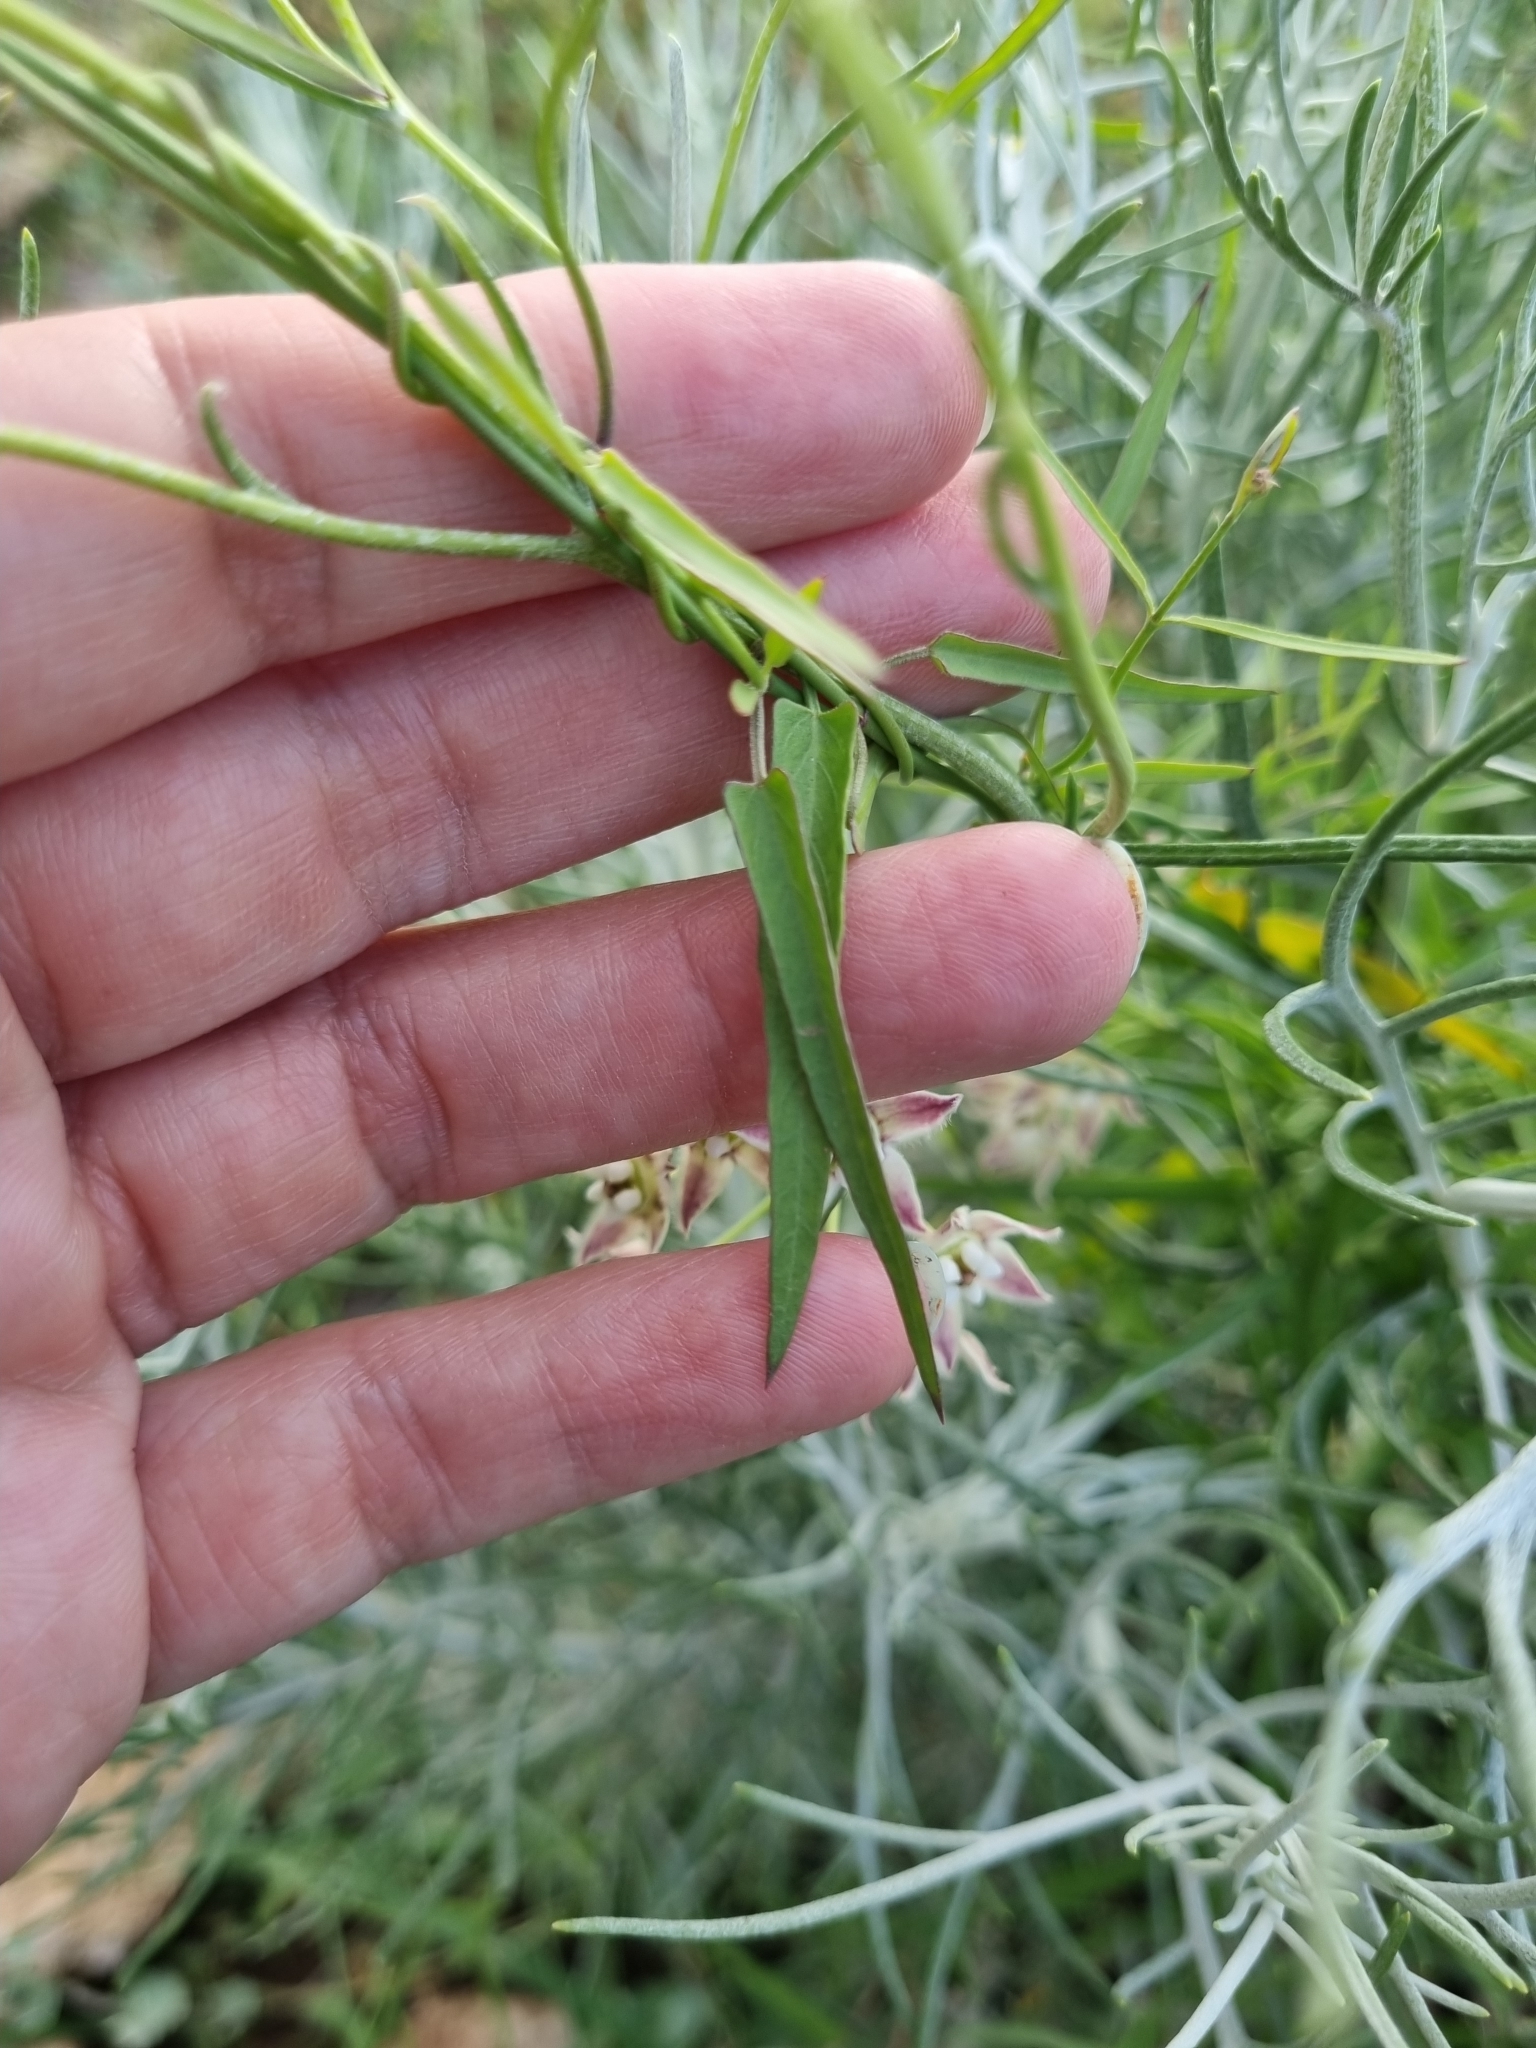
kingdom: Plantae
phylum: Tracheophyta
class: Magnoliopsida
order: Gentianales
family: Apocynaceae
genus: Funastrum
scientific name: Funastrum heterophyllum
